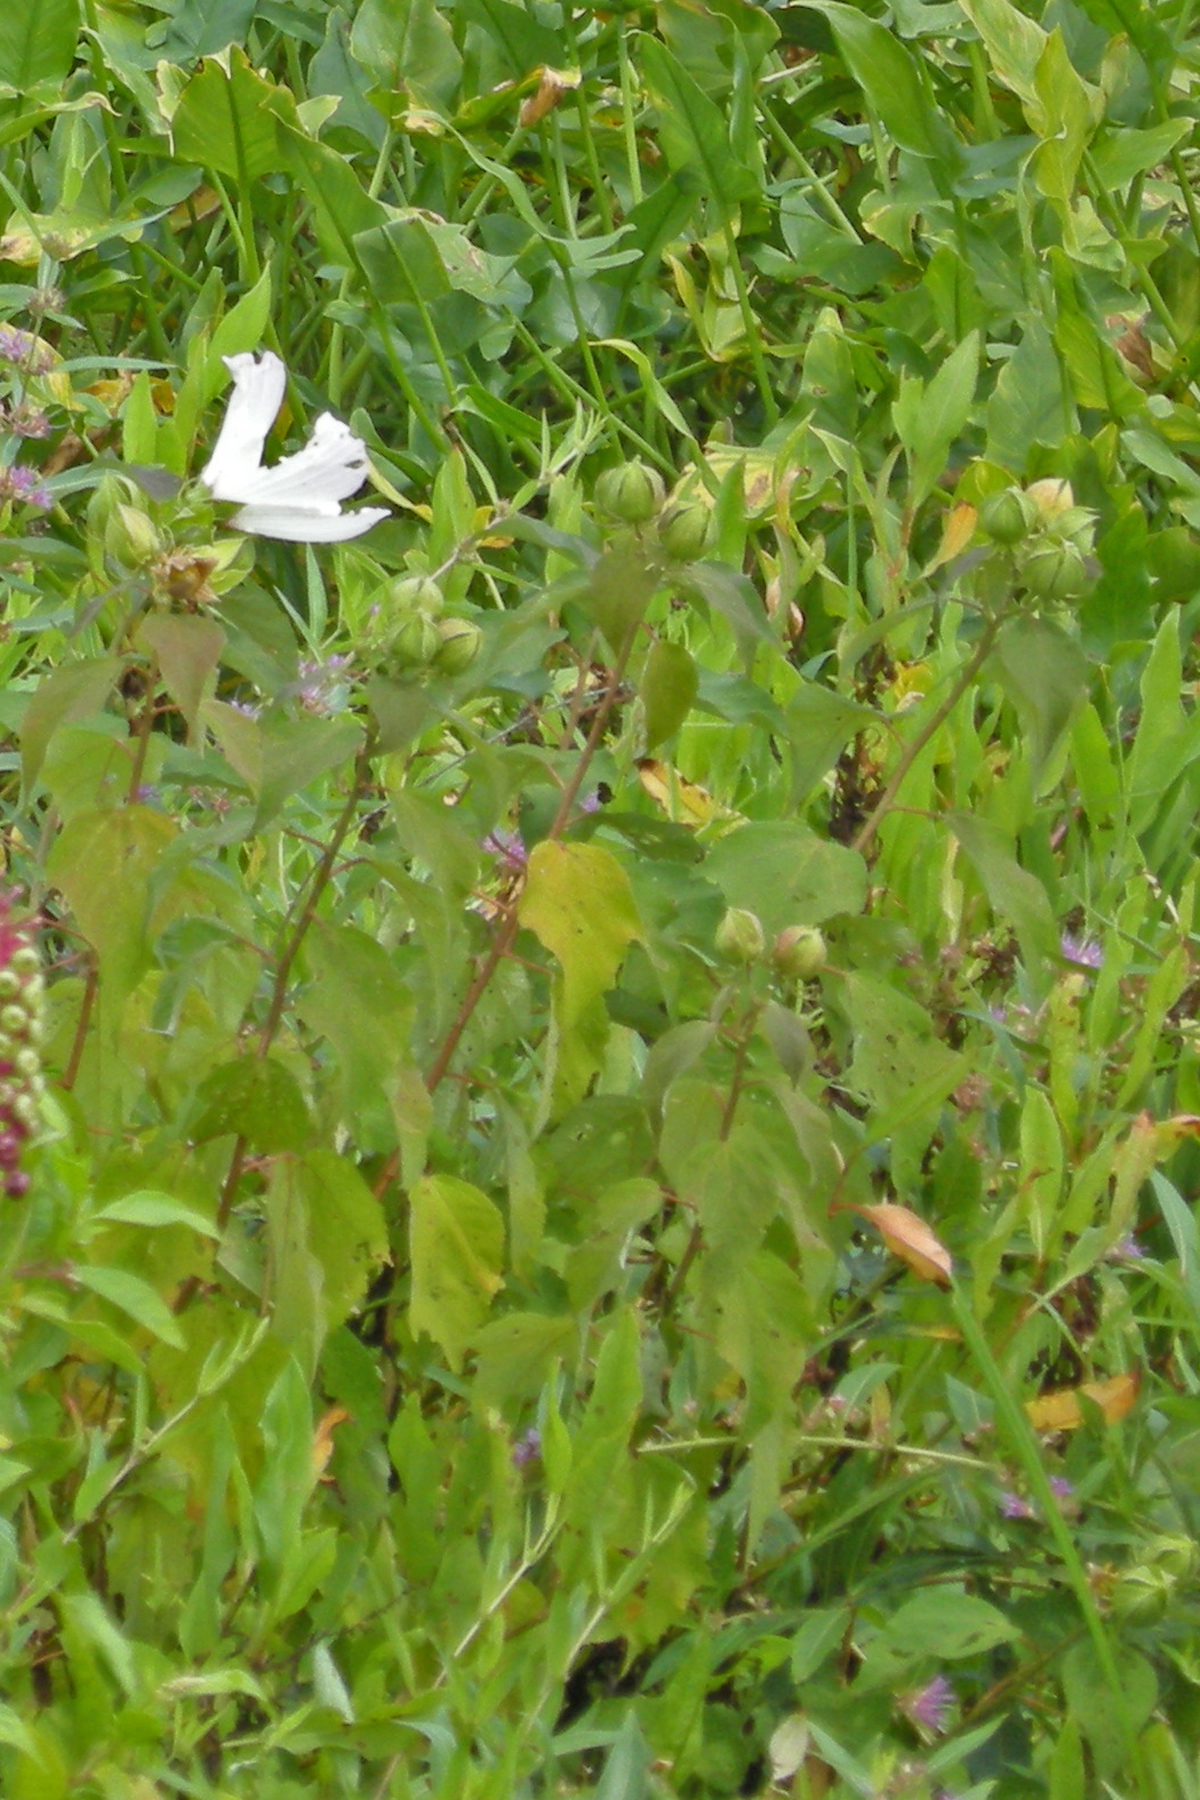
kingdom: Plantae
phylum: Tracheophyta
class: Magnoliopsida
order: Malvales
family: Malvaceae
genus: Hibiscus
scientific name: Hibiscus moscheutos
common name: Common rose-mallow
